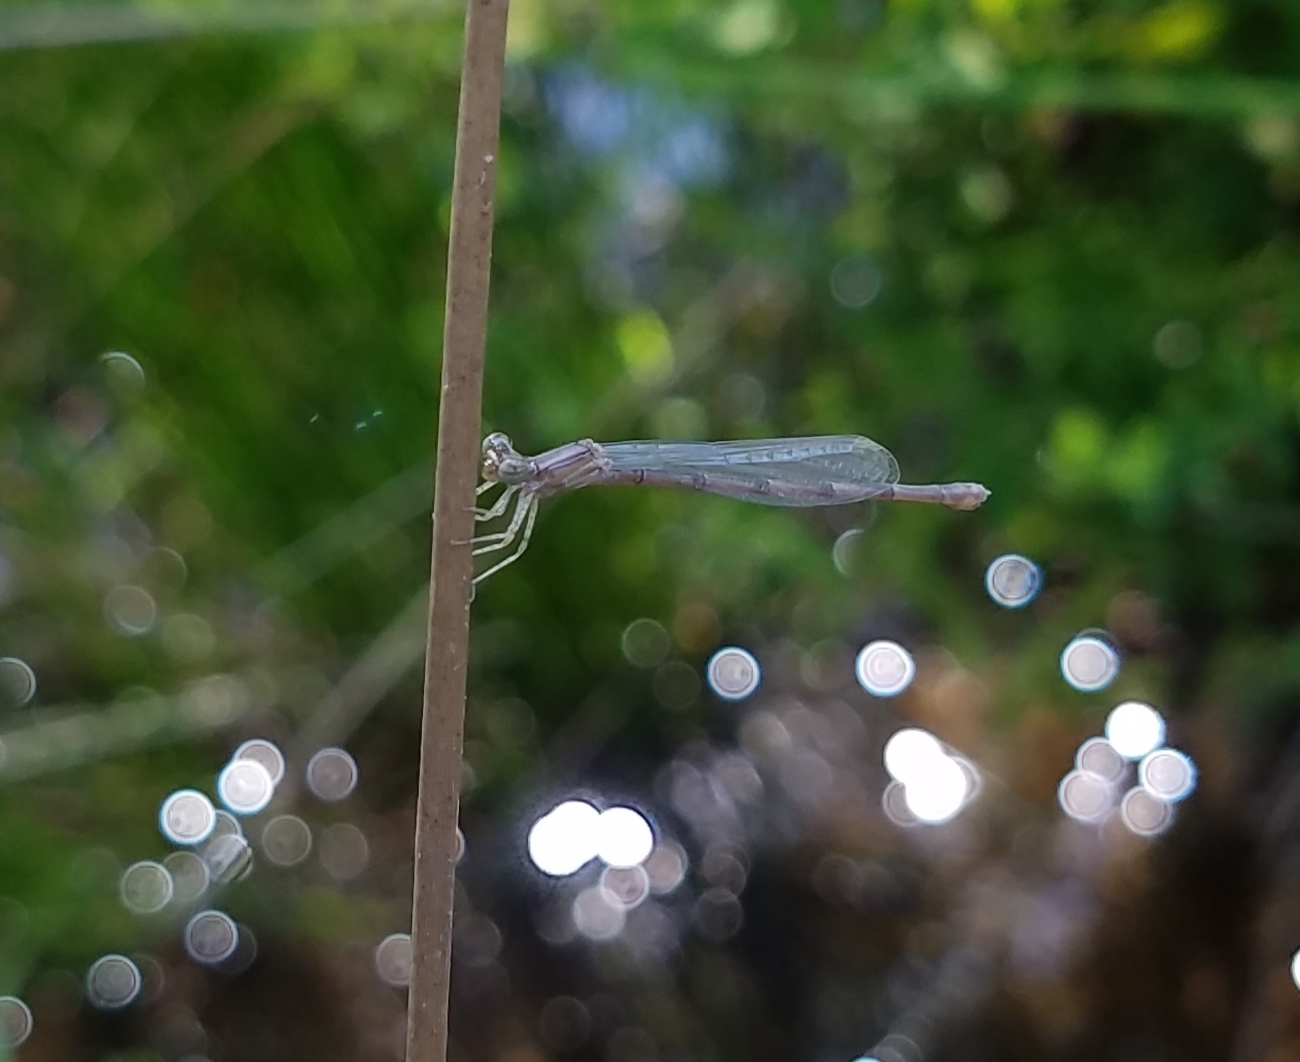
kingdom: Animalia
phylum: Arthropoda
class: Insecta
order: Odonata
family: Coenagrionidae
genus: Enallagma
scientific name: Enallagma basidens
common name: Double-striped bluet
